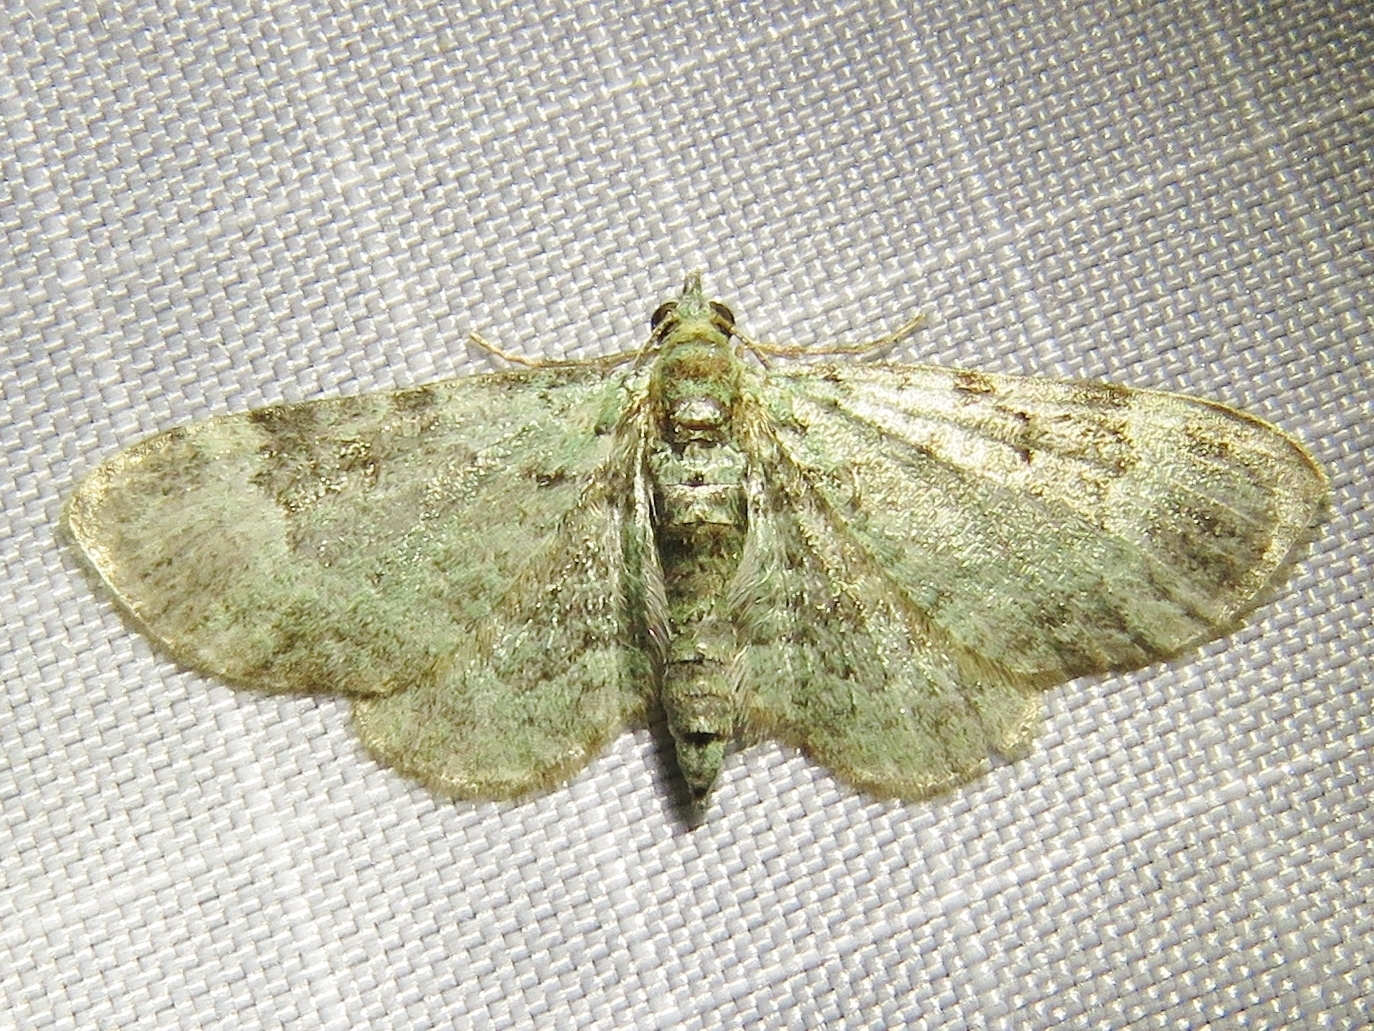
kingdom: Animalia
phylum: Arthropoda
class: Insecta
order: Lepidoptera
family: Geometridae
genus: Pasiphila
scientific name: Pasiphila rectangulata
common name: Green pug
